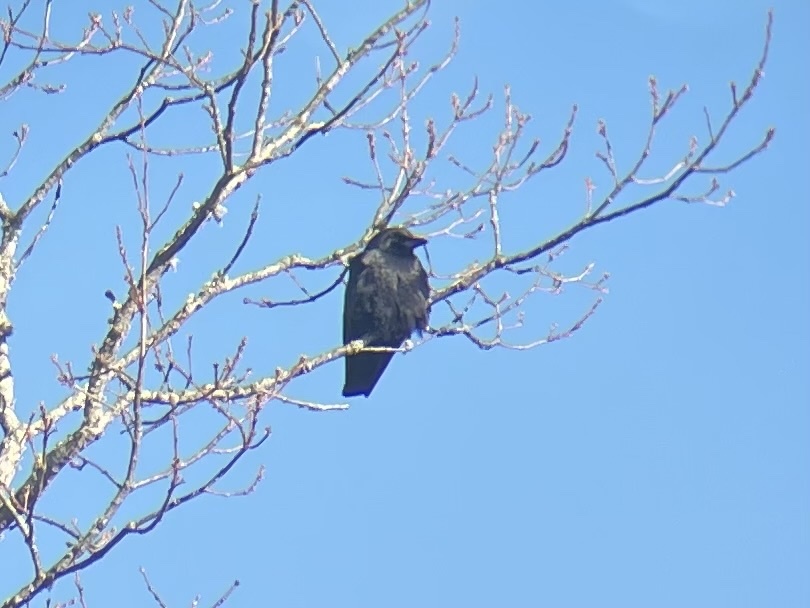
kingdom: Animalia
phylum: Chordata
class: Aves
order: Passeriformes
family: Corvidae
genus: Corvus
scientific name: Corvus brachyrhynchos
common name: American crow
